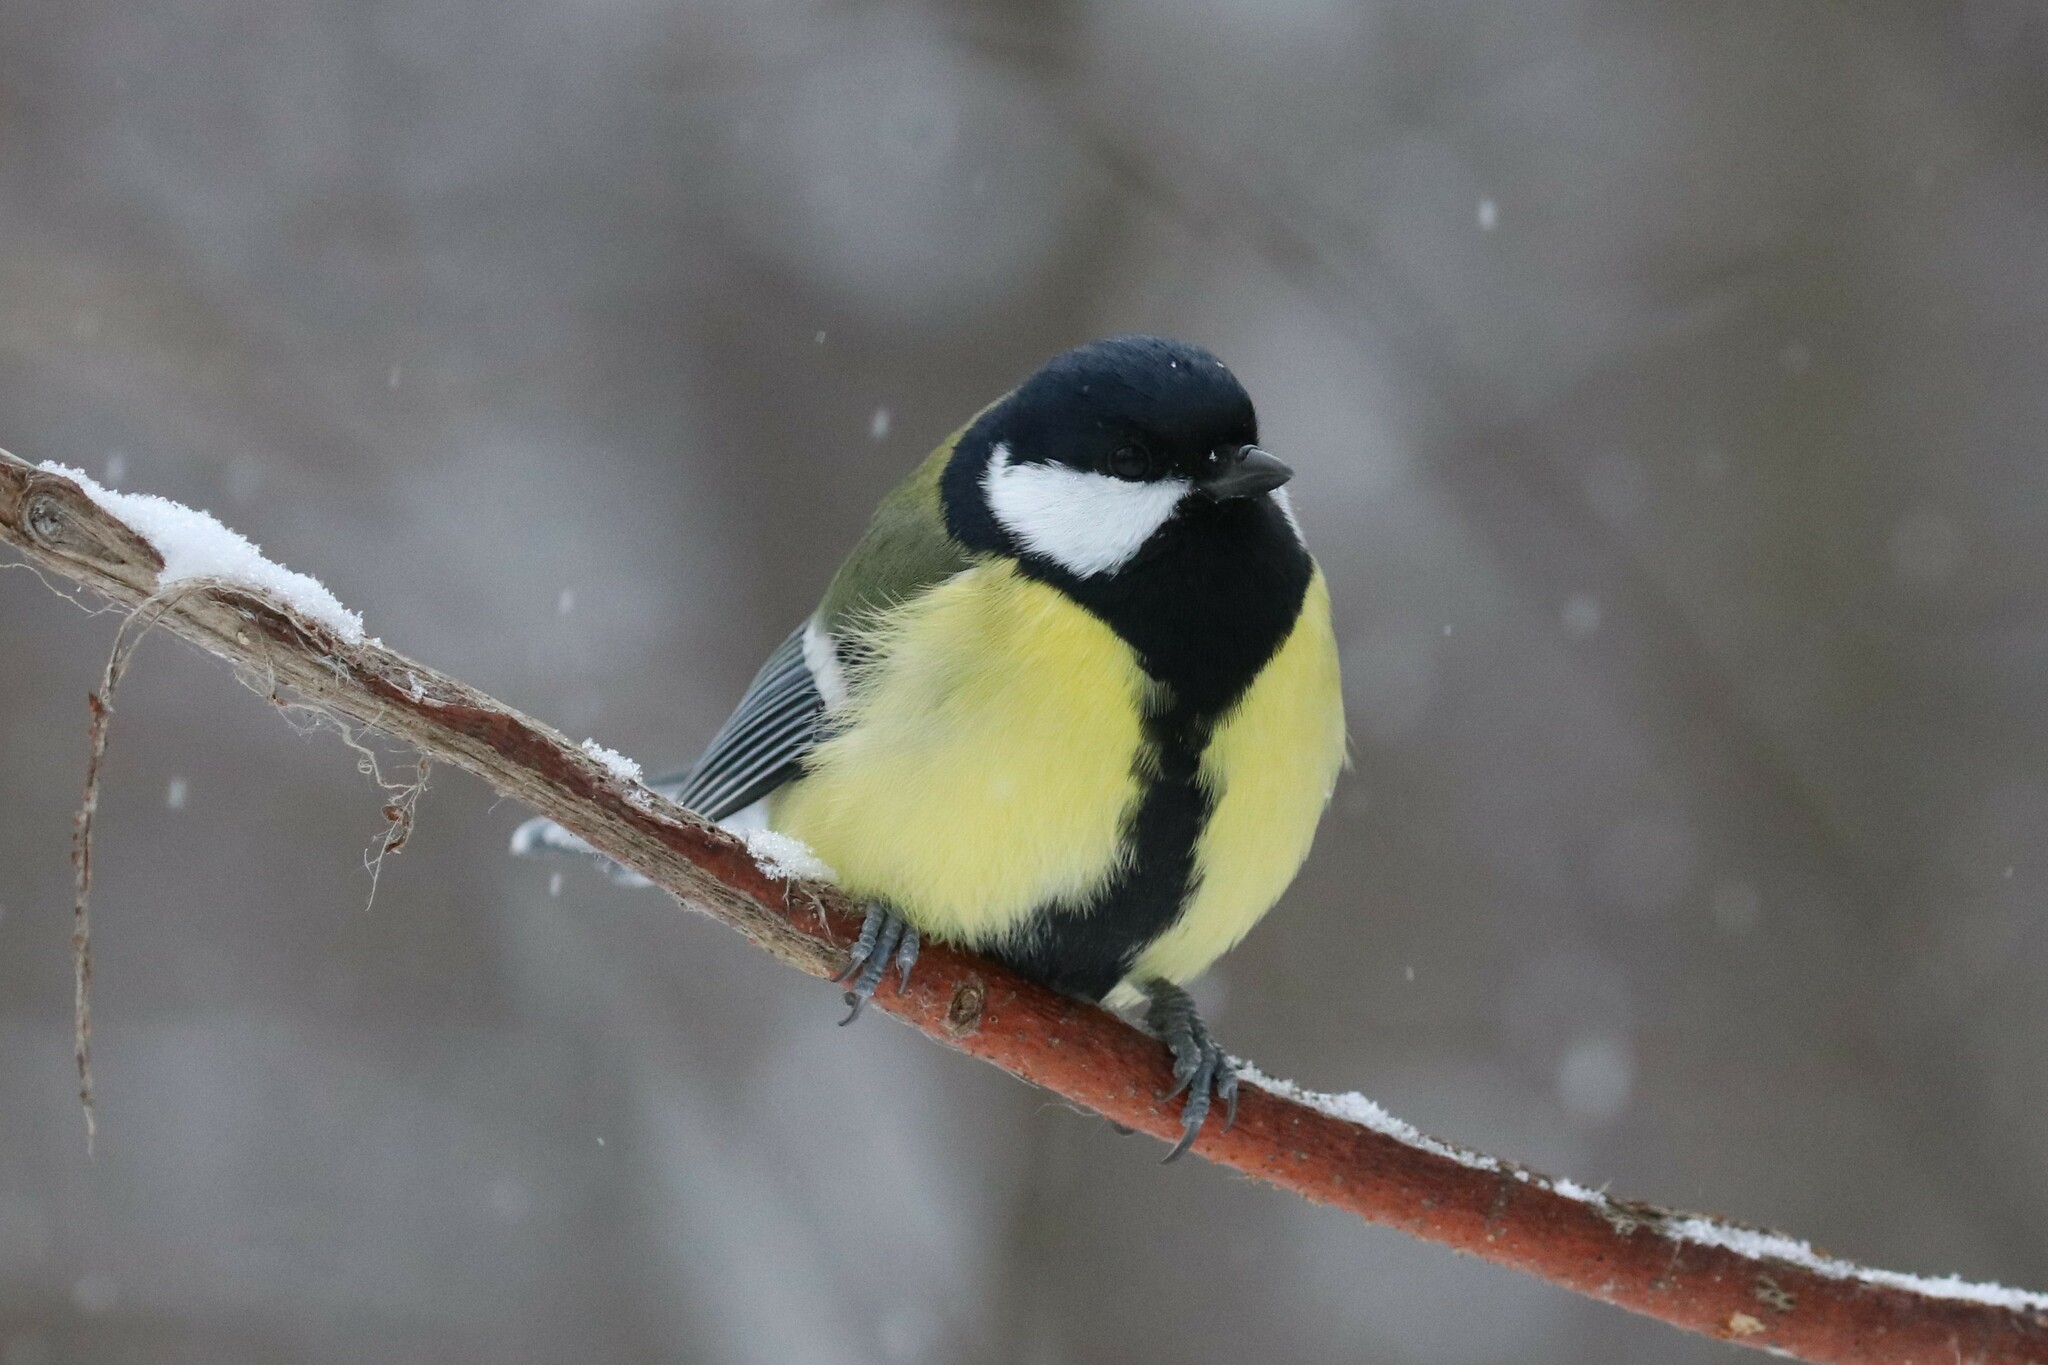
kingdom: Animalia
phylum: Chordata
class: Aves
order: Passeriformes
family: Paridae
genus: Parus
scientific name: Parus major
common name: Great tit
